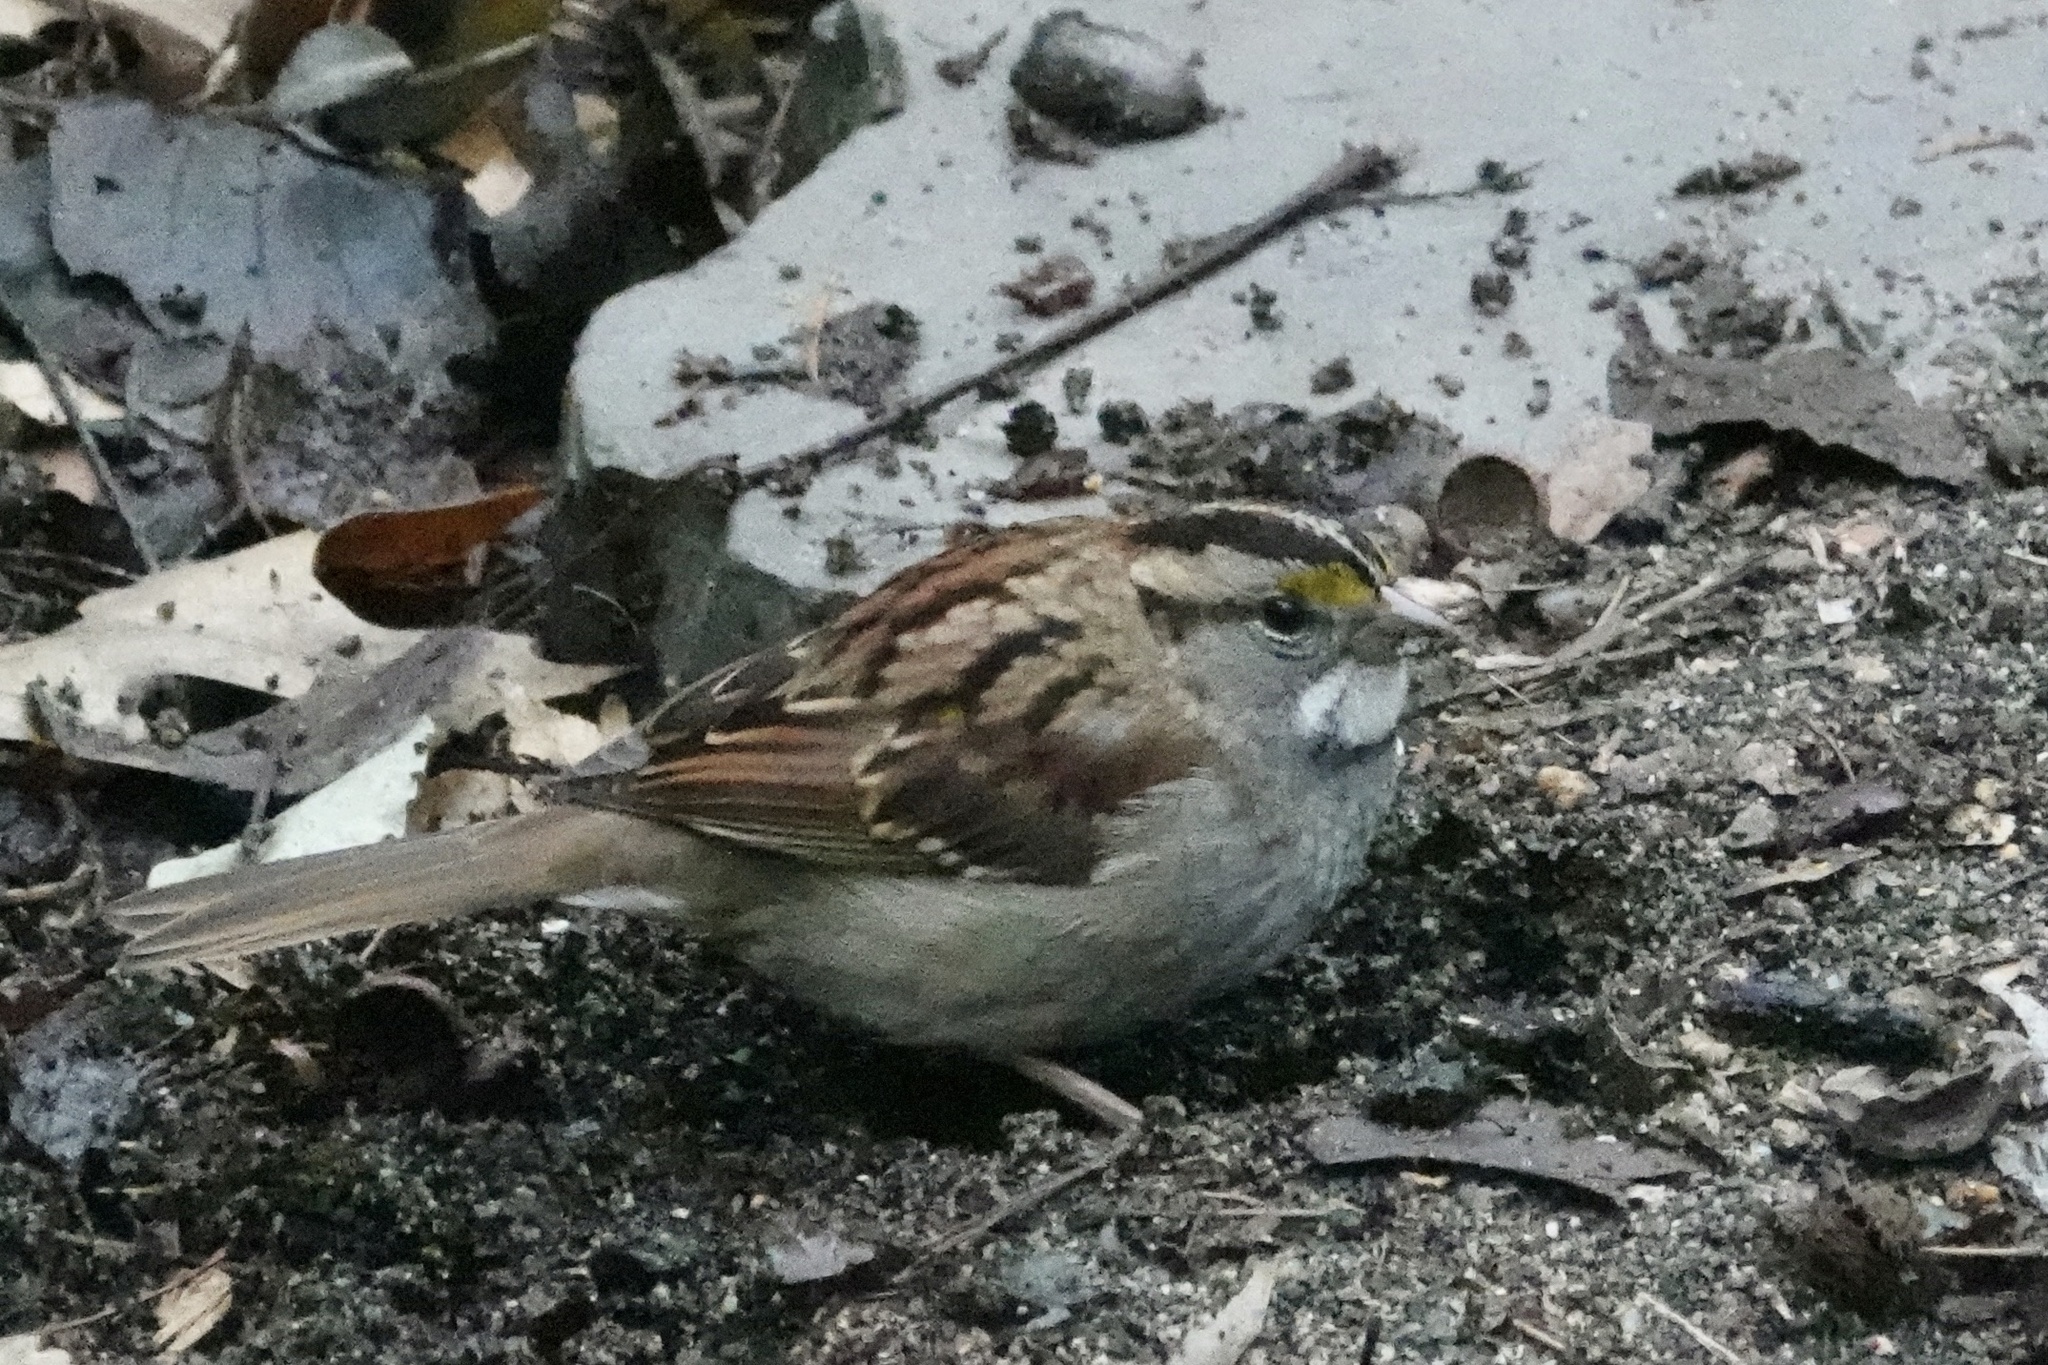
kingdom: Animalia
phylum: Chordata
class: Aves
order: Passeriformes
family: Passerellidae
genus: Zonotrichia
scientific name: Zonotrichia albicollis
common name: White-throated sparrow
